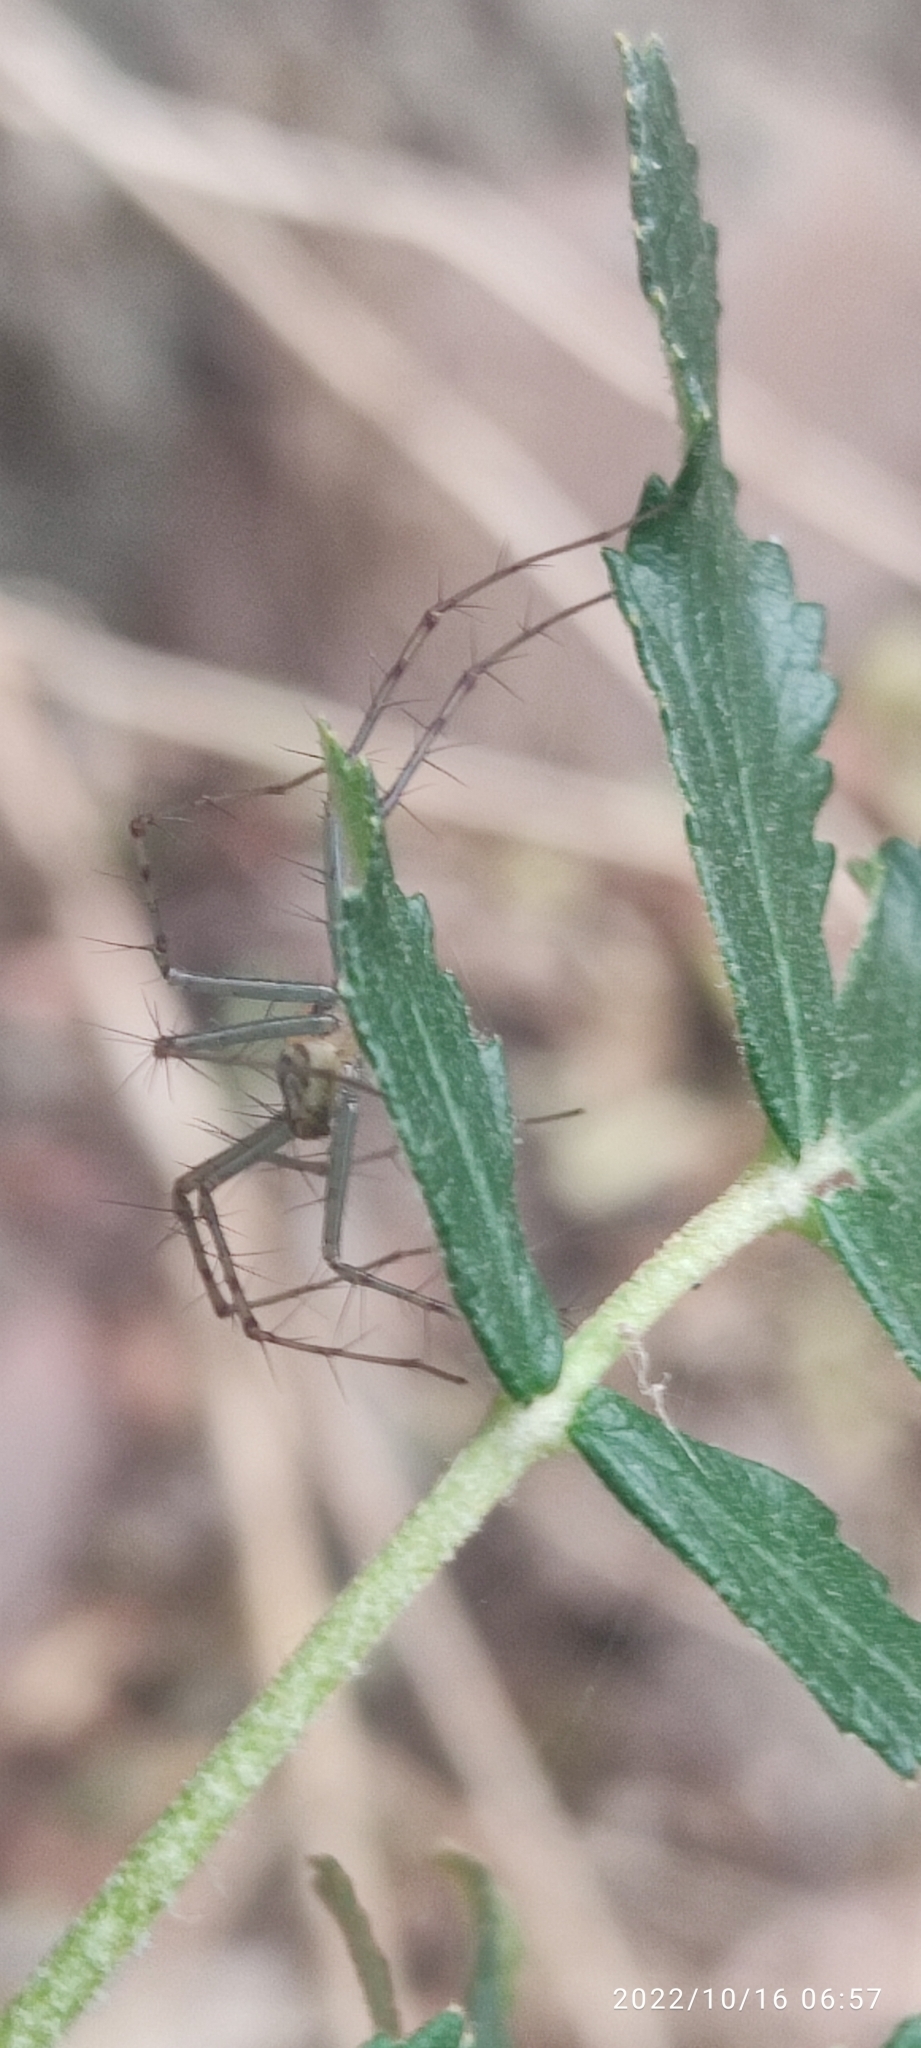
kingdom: Animalia
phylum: Arthropoda
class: Arachnida
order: Araneae
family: Oxyopidae
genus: Peucetia
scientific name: Peucetia rubrolineata
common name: Lynx spiders
